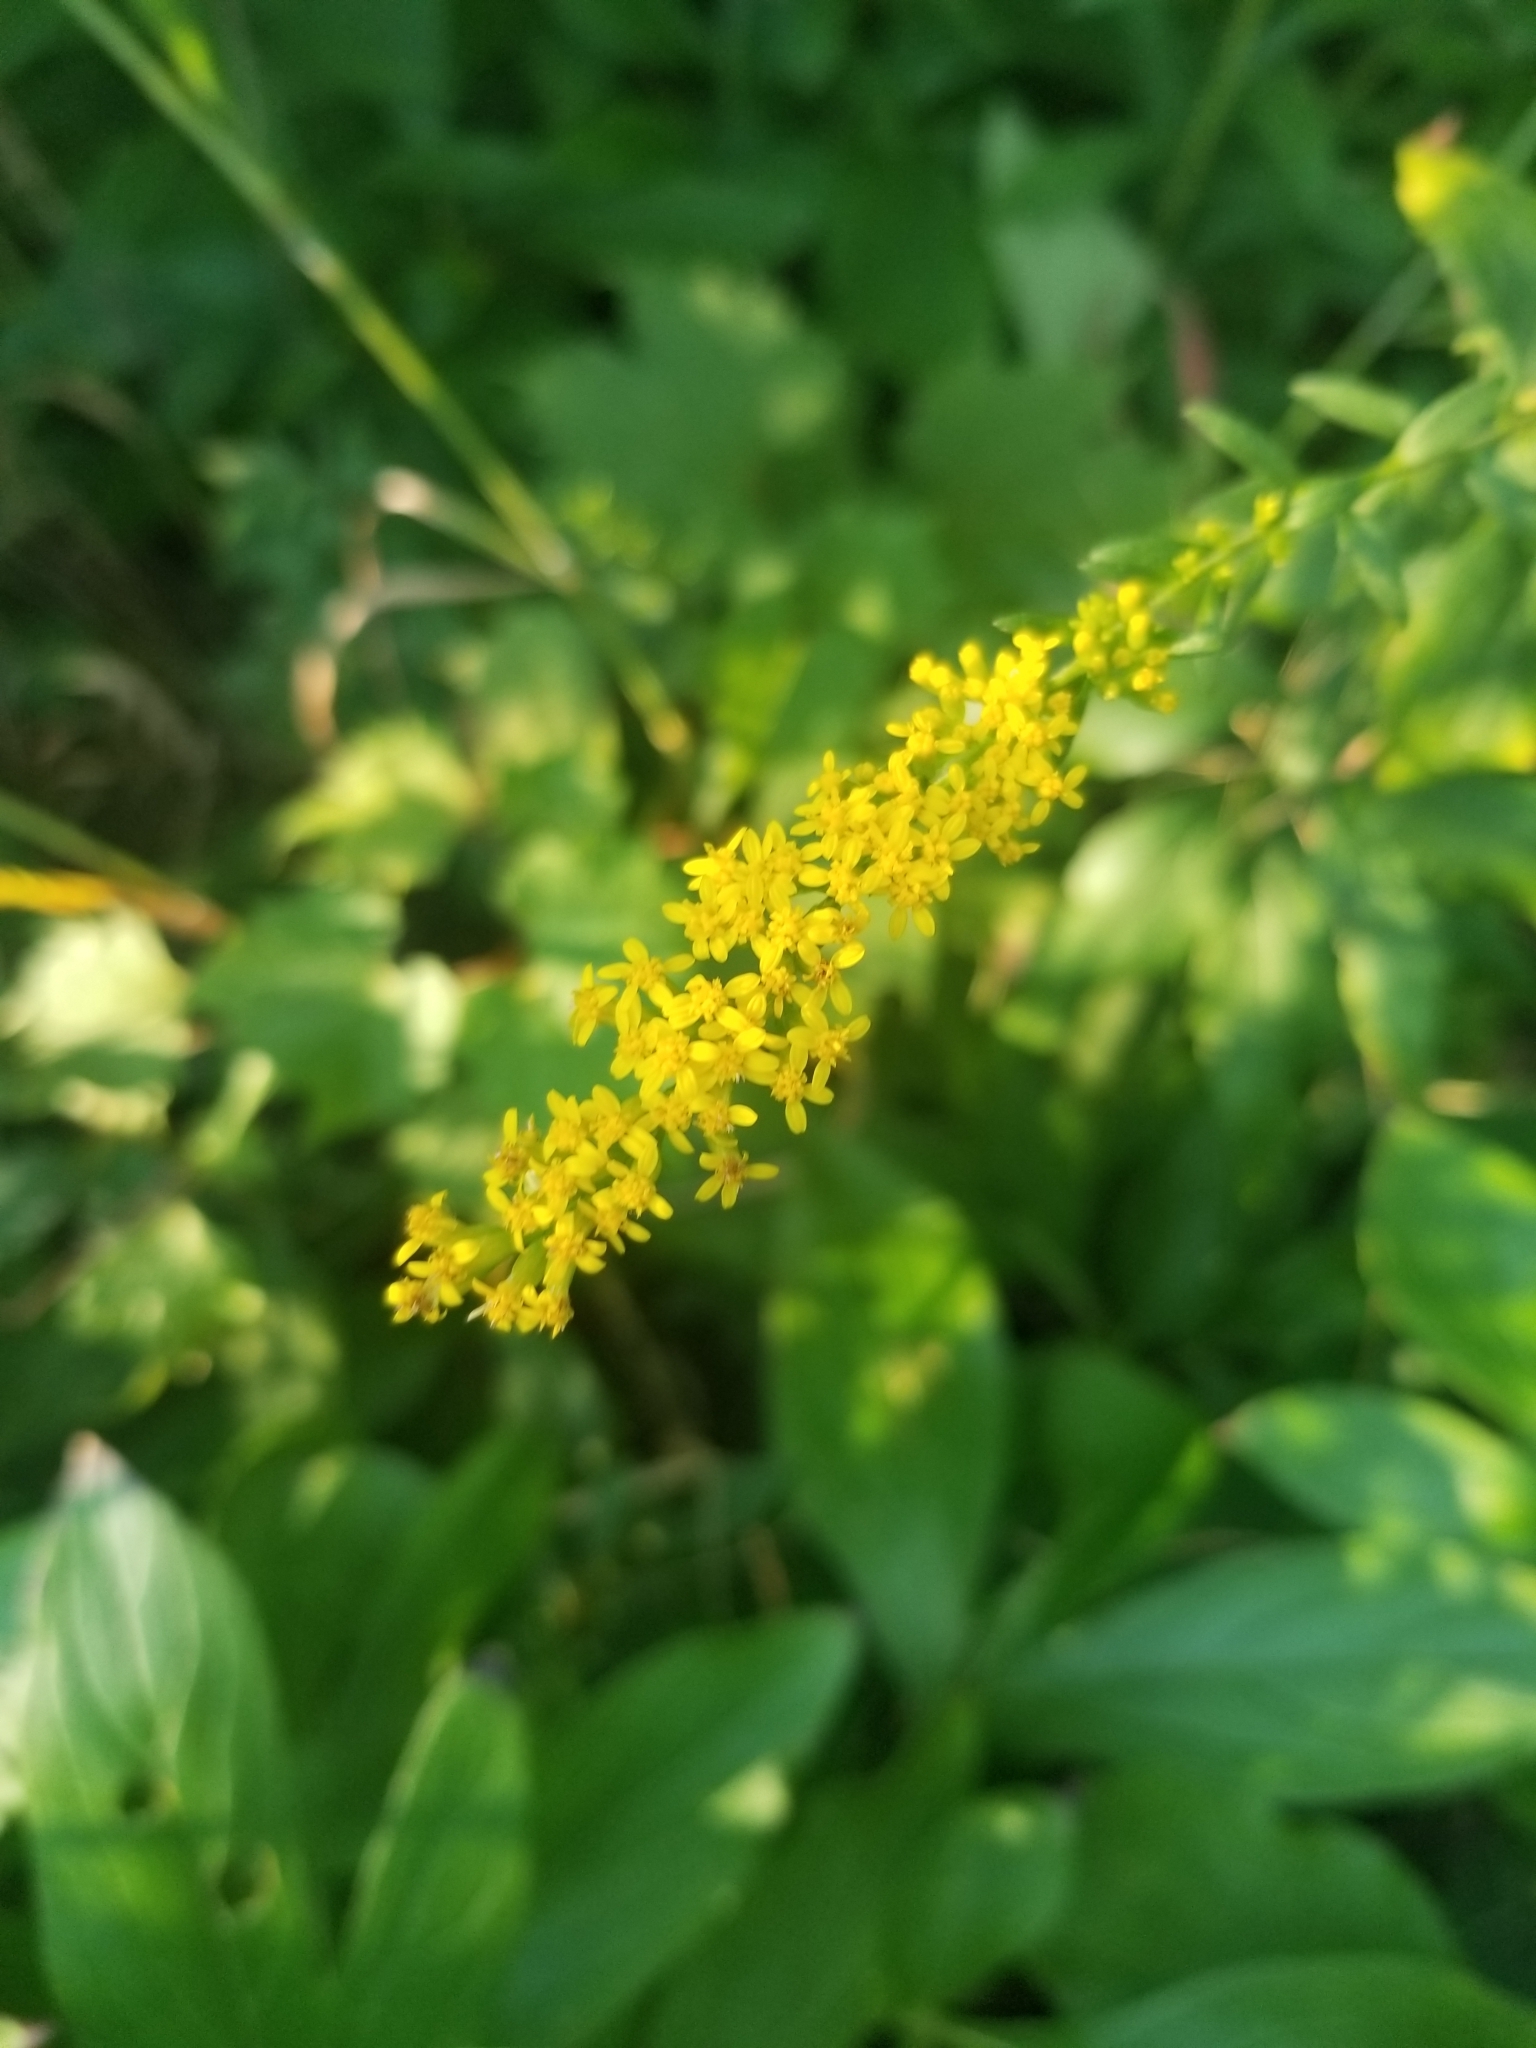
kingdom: Plantae
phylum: Tracheophyta
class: Magnoliopsida
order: Asterales
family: Asteraceae
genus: Solidago
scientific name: Solidago ulmifolia
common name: Elm-leaf goldenrod
